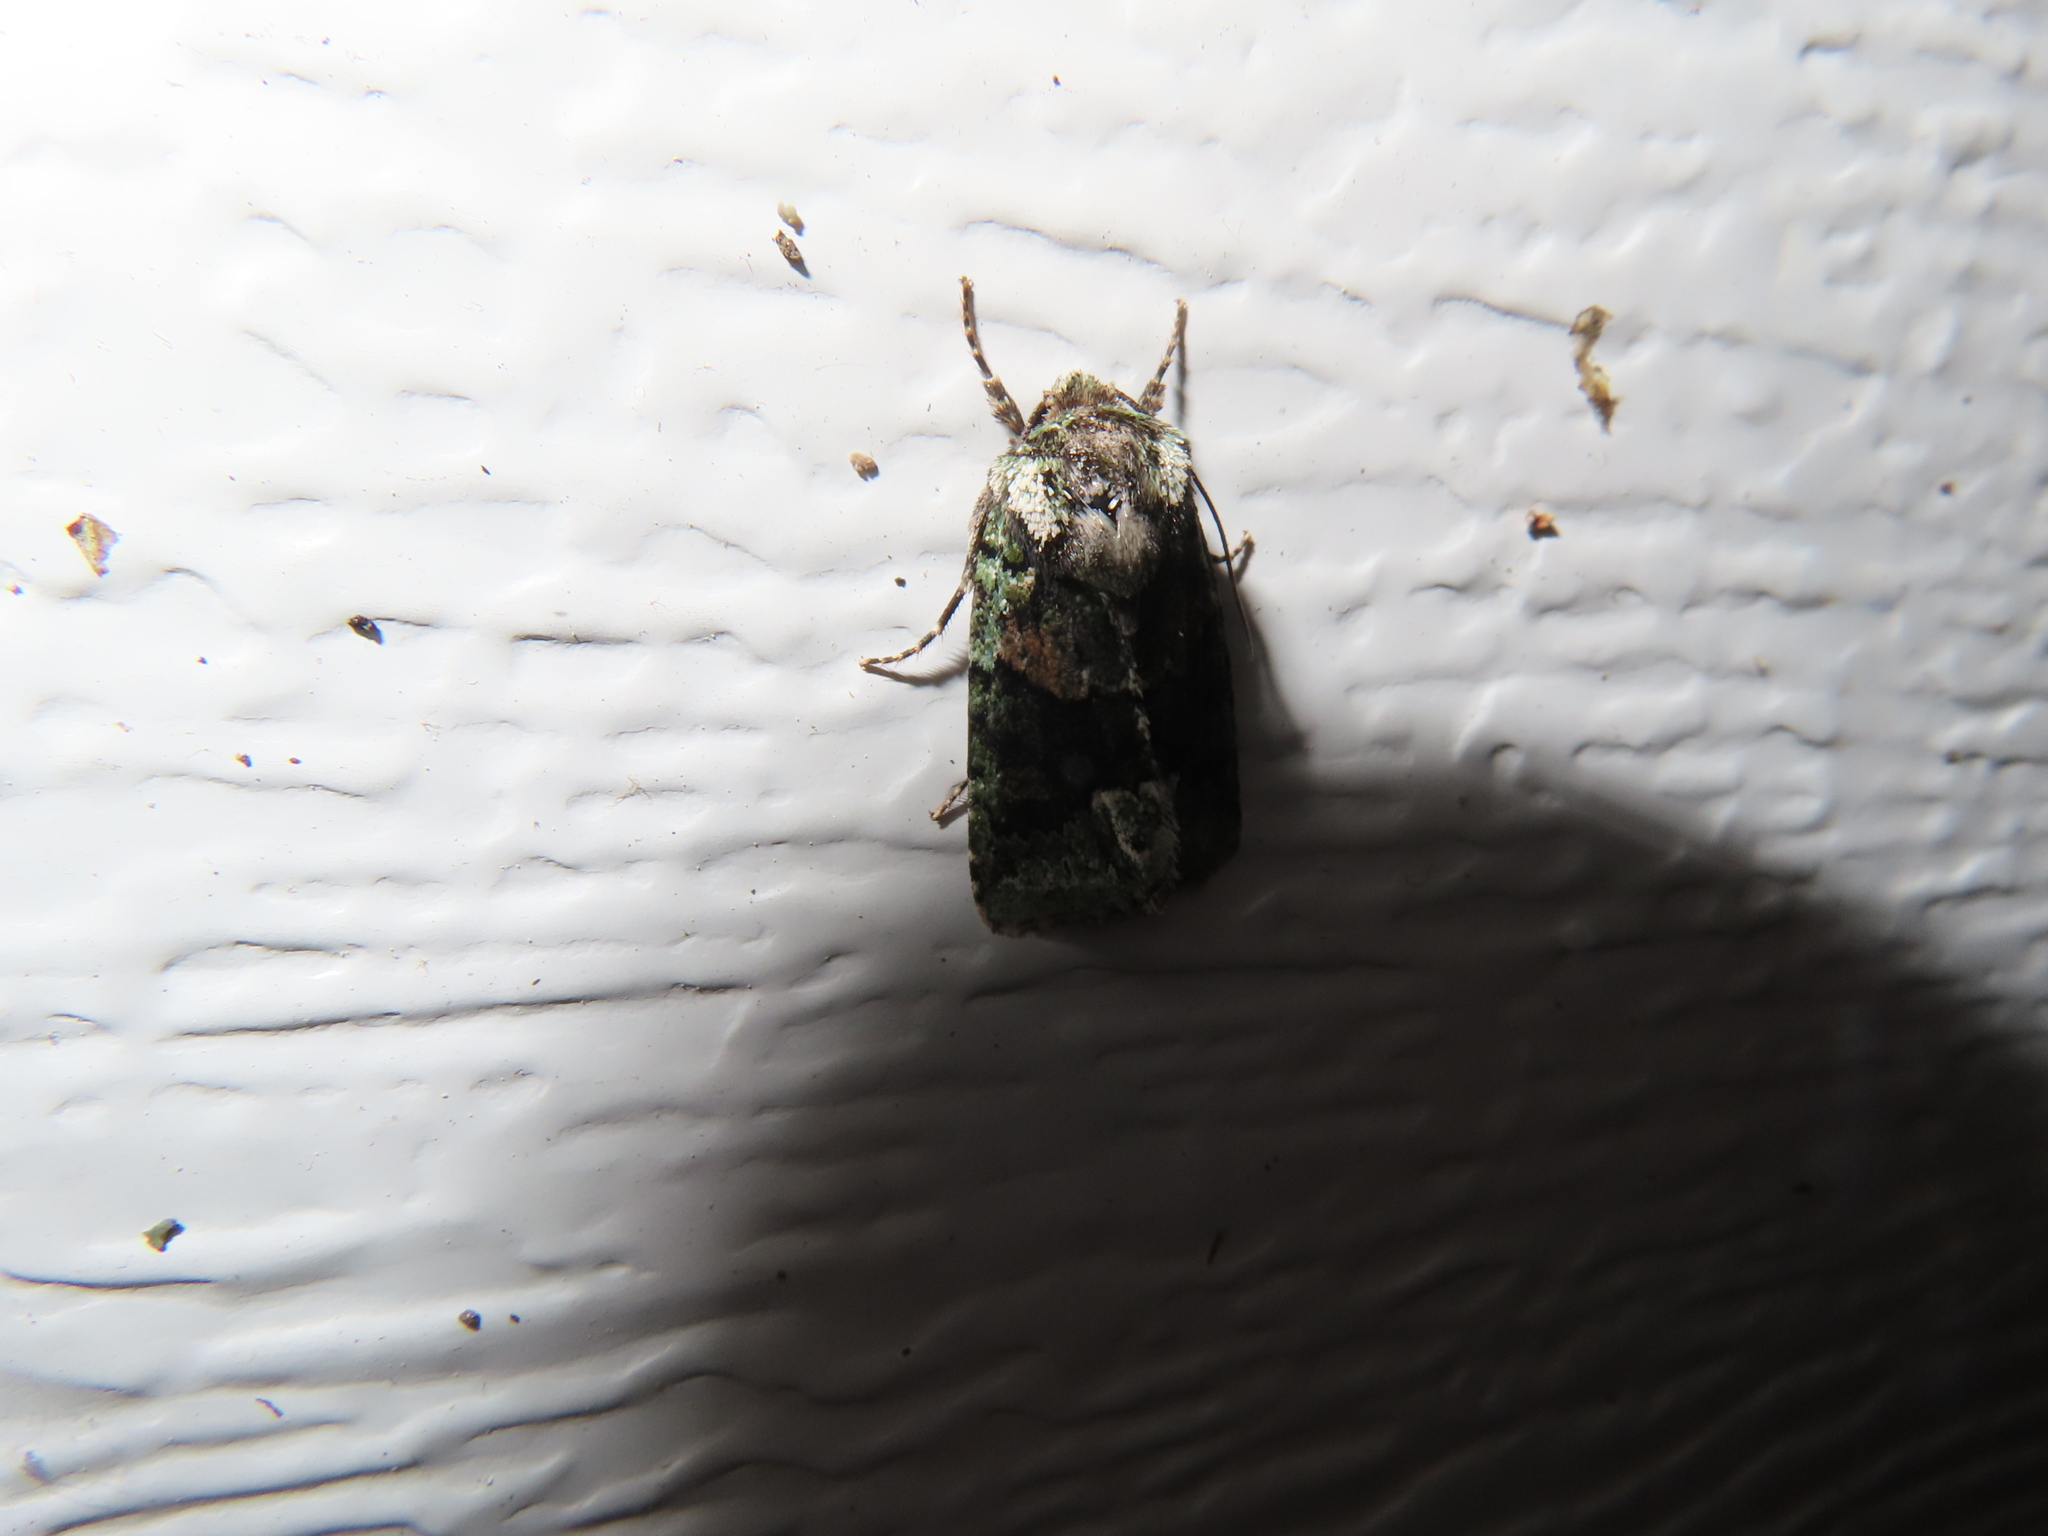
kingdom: Animalia
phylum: Arthropoda
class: Insecta
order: Lepidoptera
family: Noctuidae
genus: Lacinipolia
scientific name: Lacinipolia explicata
